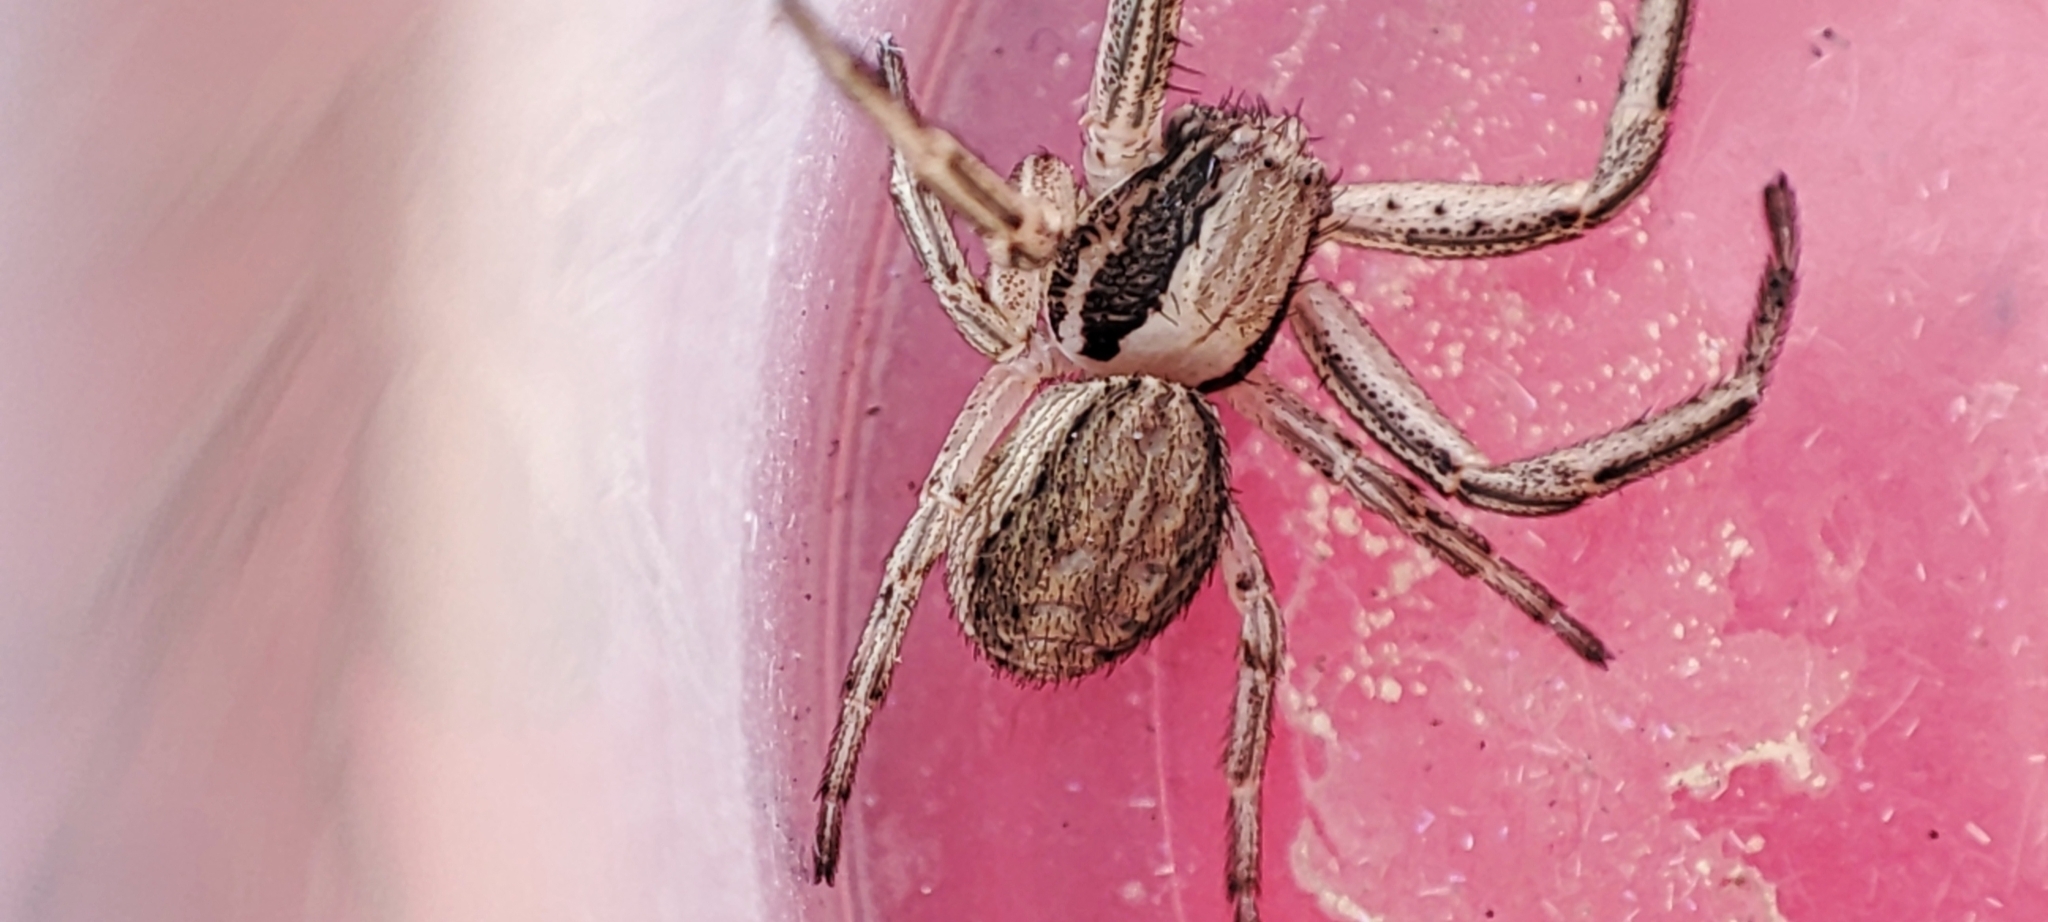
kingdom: Animalia
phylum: Arthropoda
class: Arachnida
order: Araneae
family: Thomisidae
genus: Spiracme
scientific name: Spiracme striatipes
